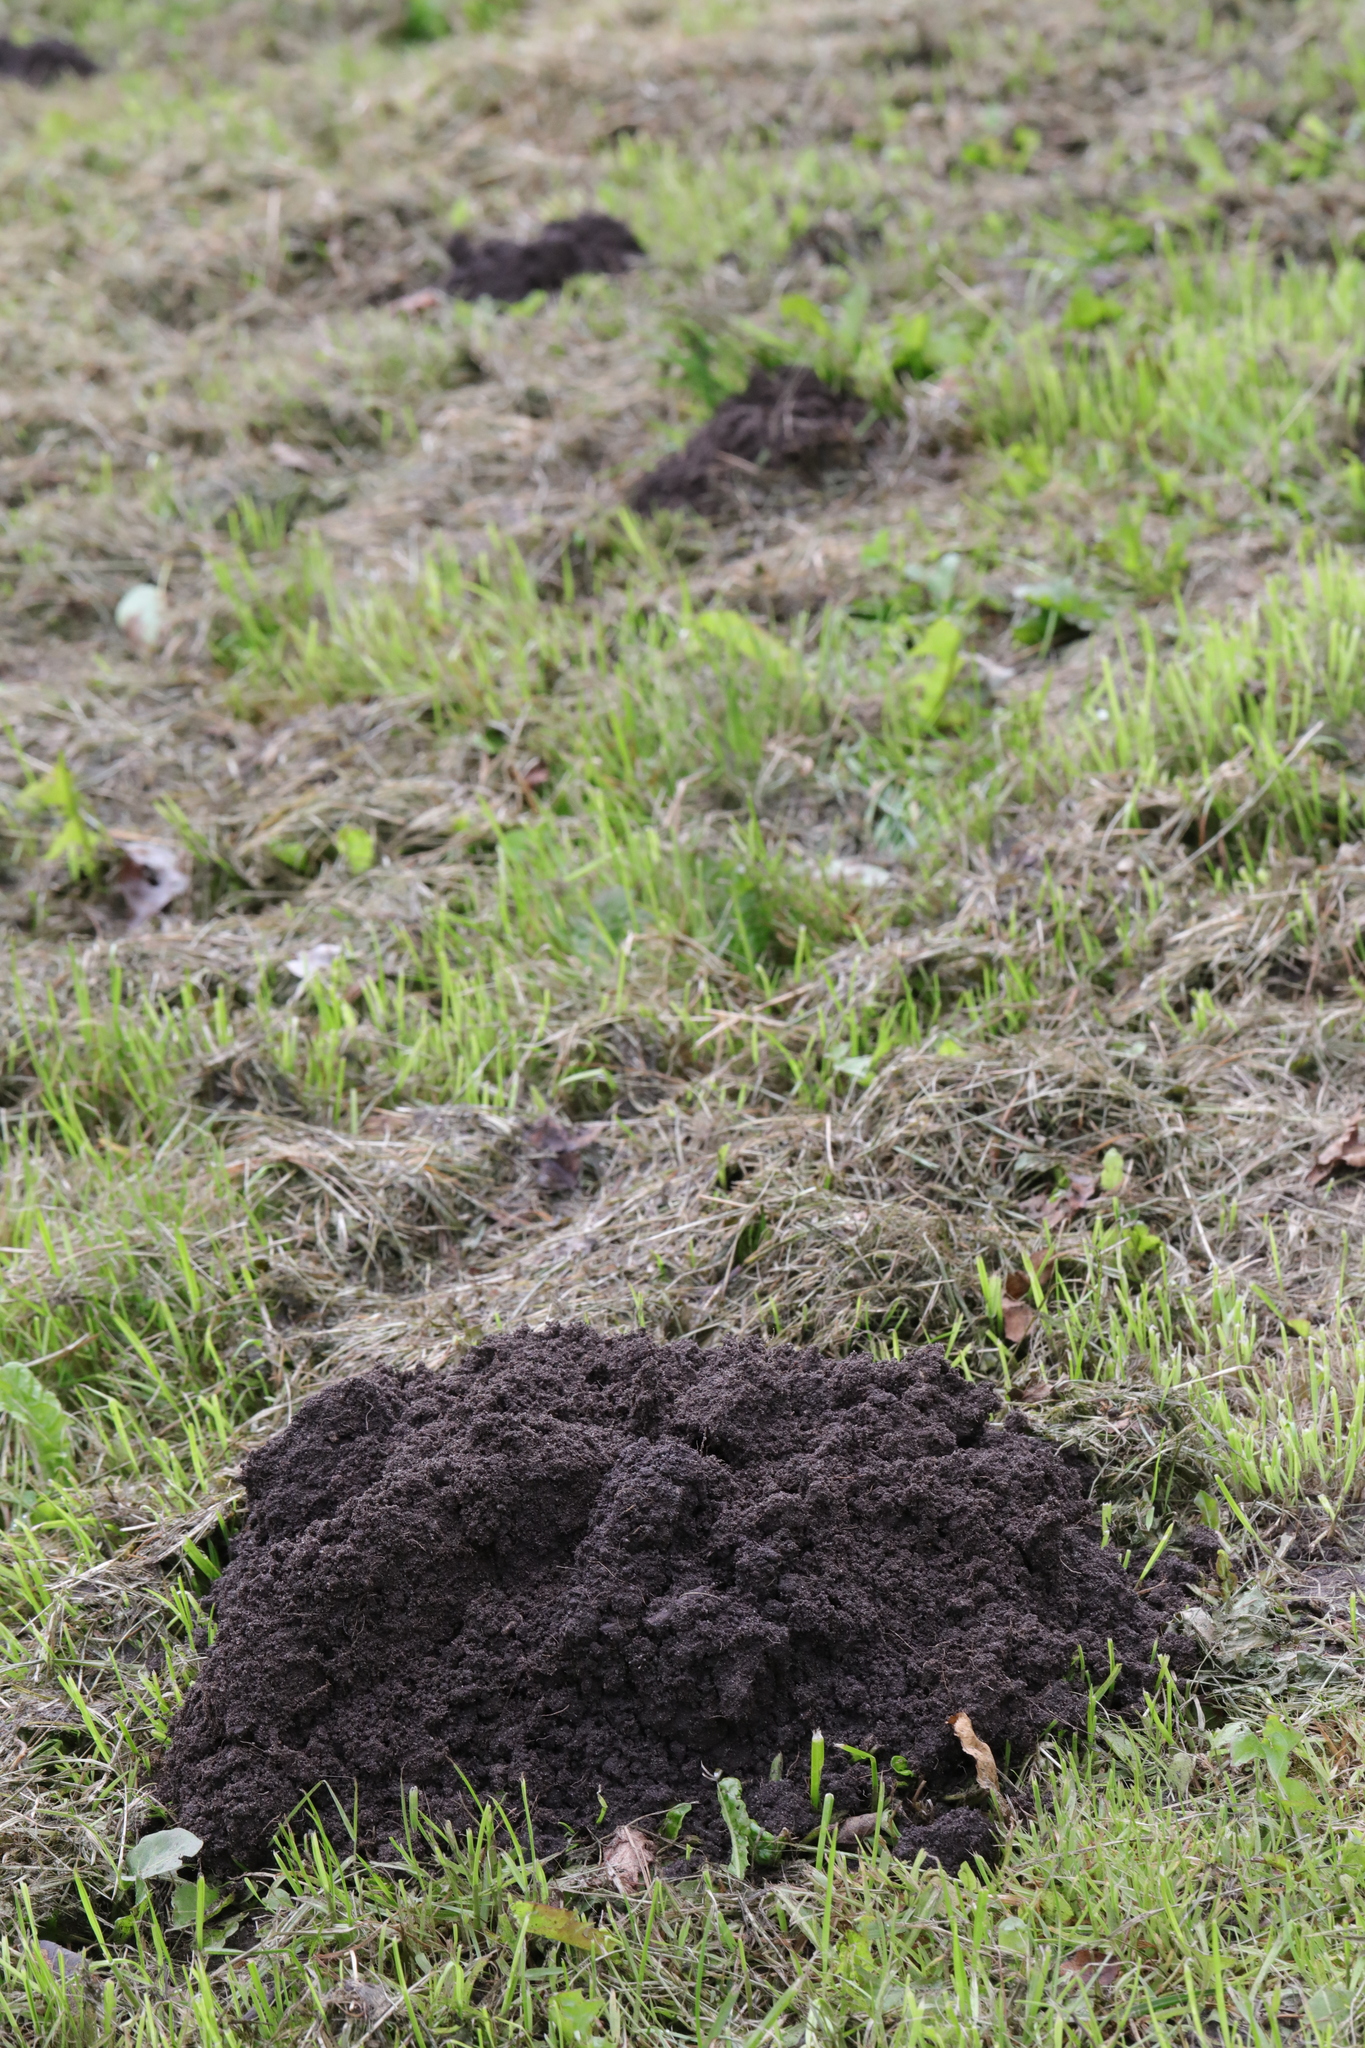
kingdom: Animalia
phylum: Chordata
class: Mammalia
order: Soricomorpha
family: Talpidae
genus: Talpa
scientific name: Talpa europaea
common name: European mole
